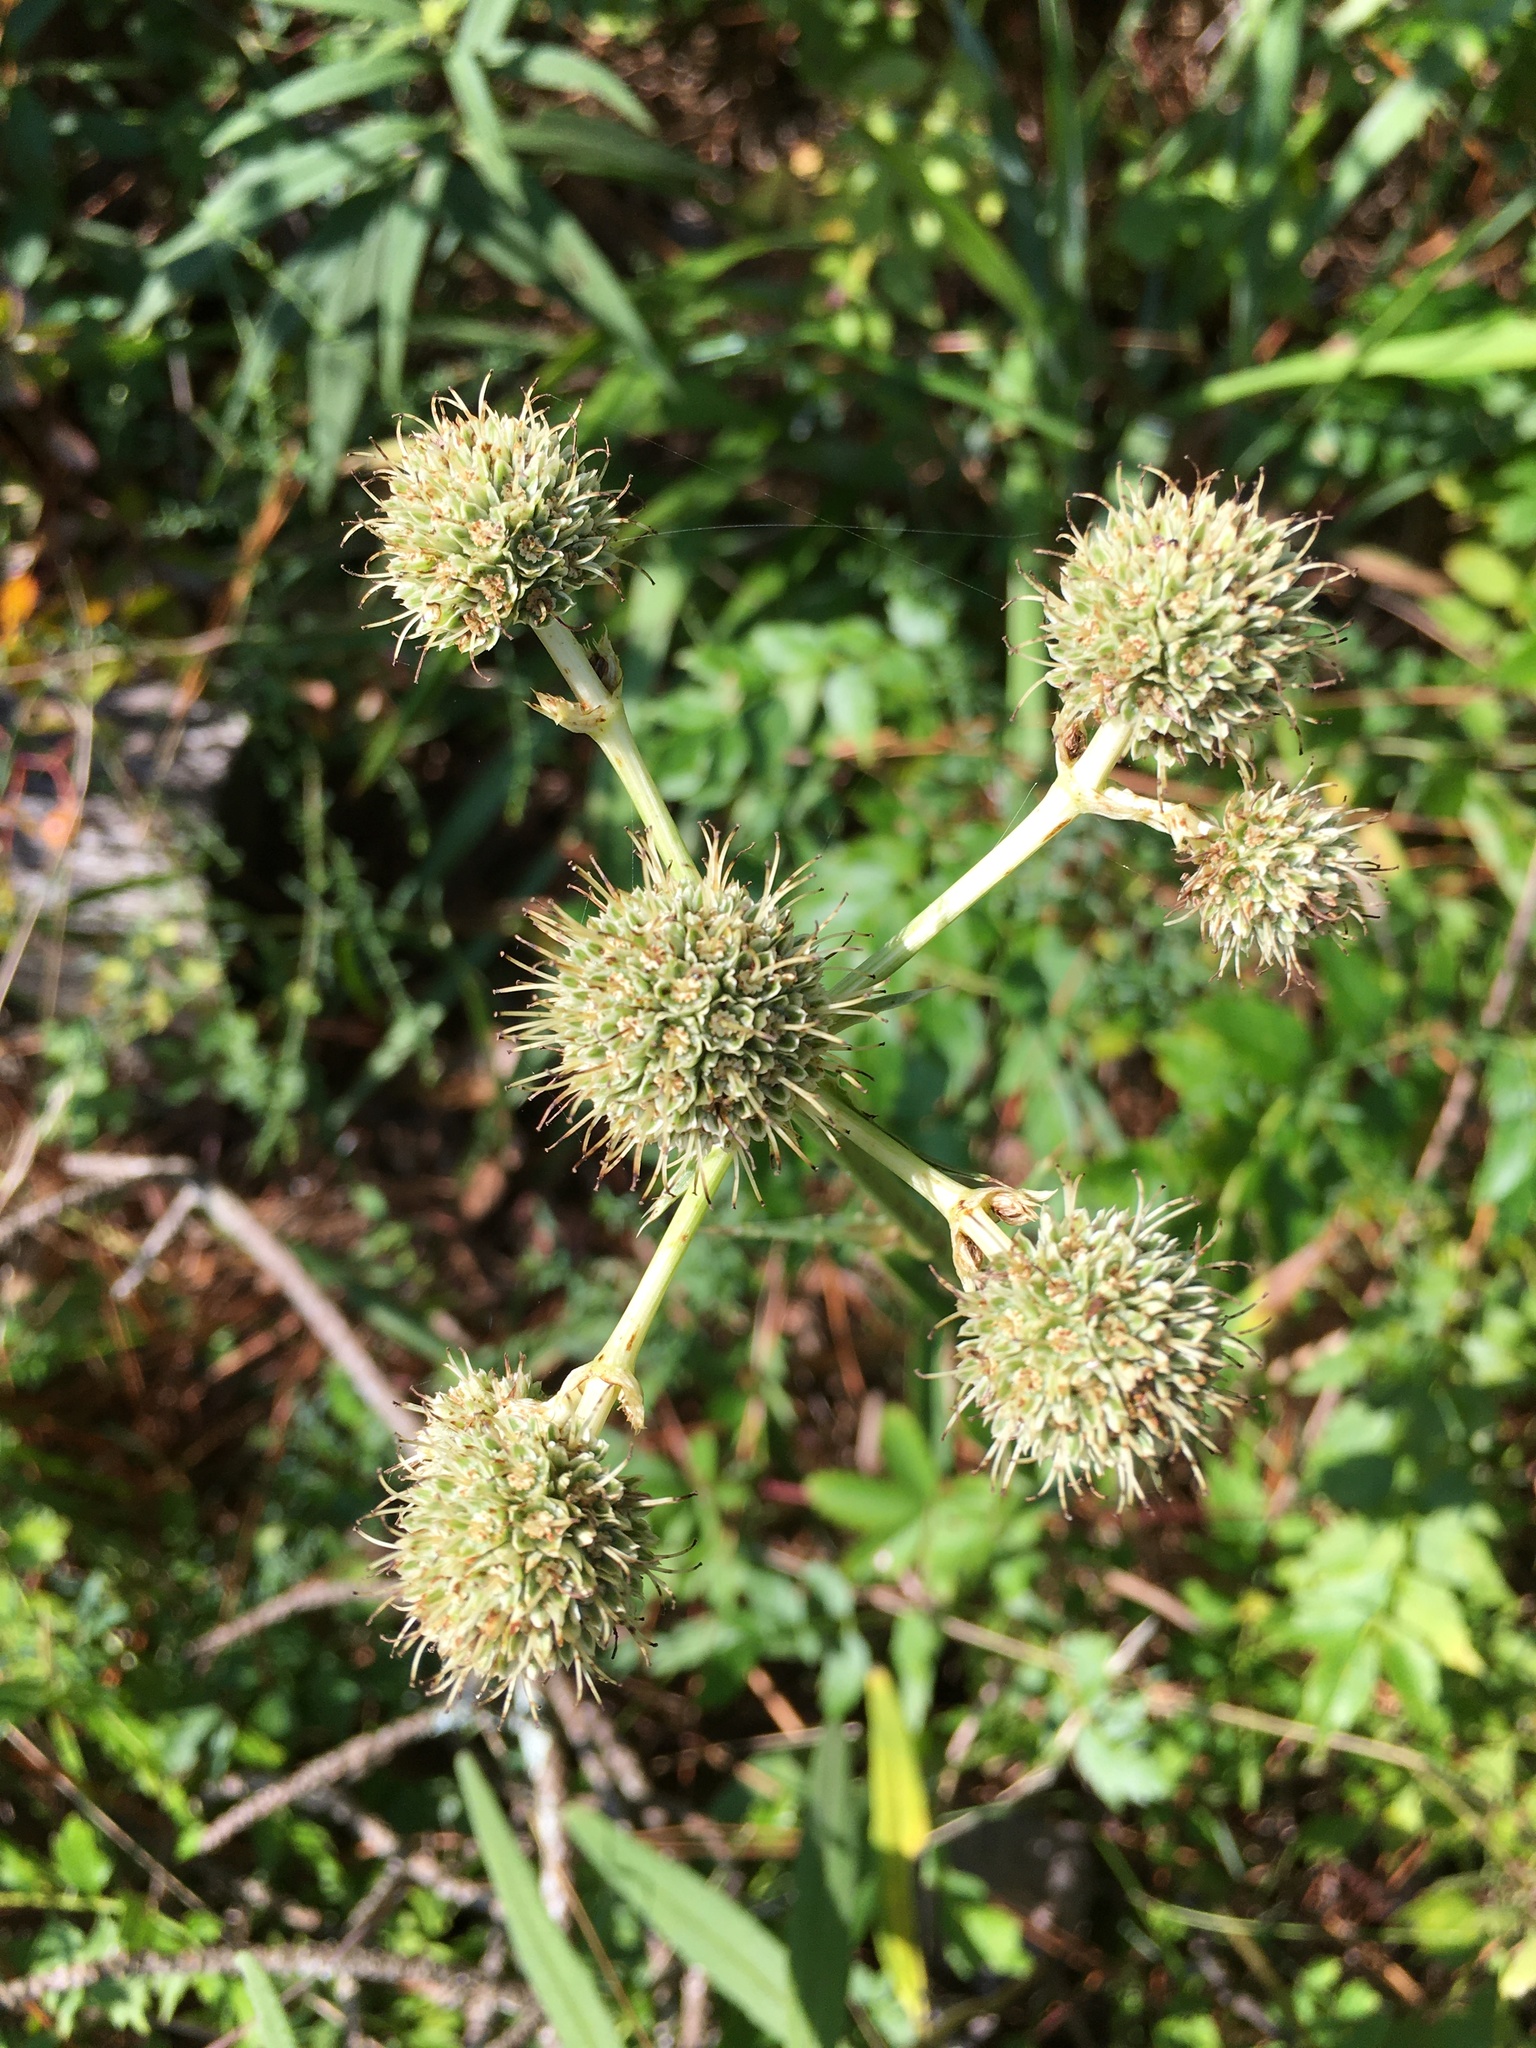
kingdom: Plantae
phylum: Tracheophyta
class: Magnoliopsida
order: Apiales
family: Apiaceae
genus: Eryngium
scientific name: Eryngium yuccifolium
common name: Button eryngo
